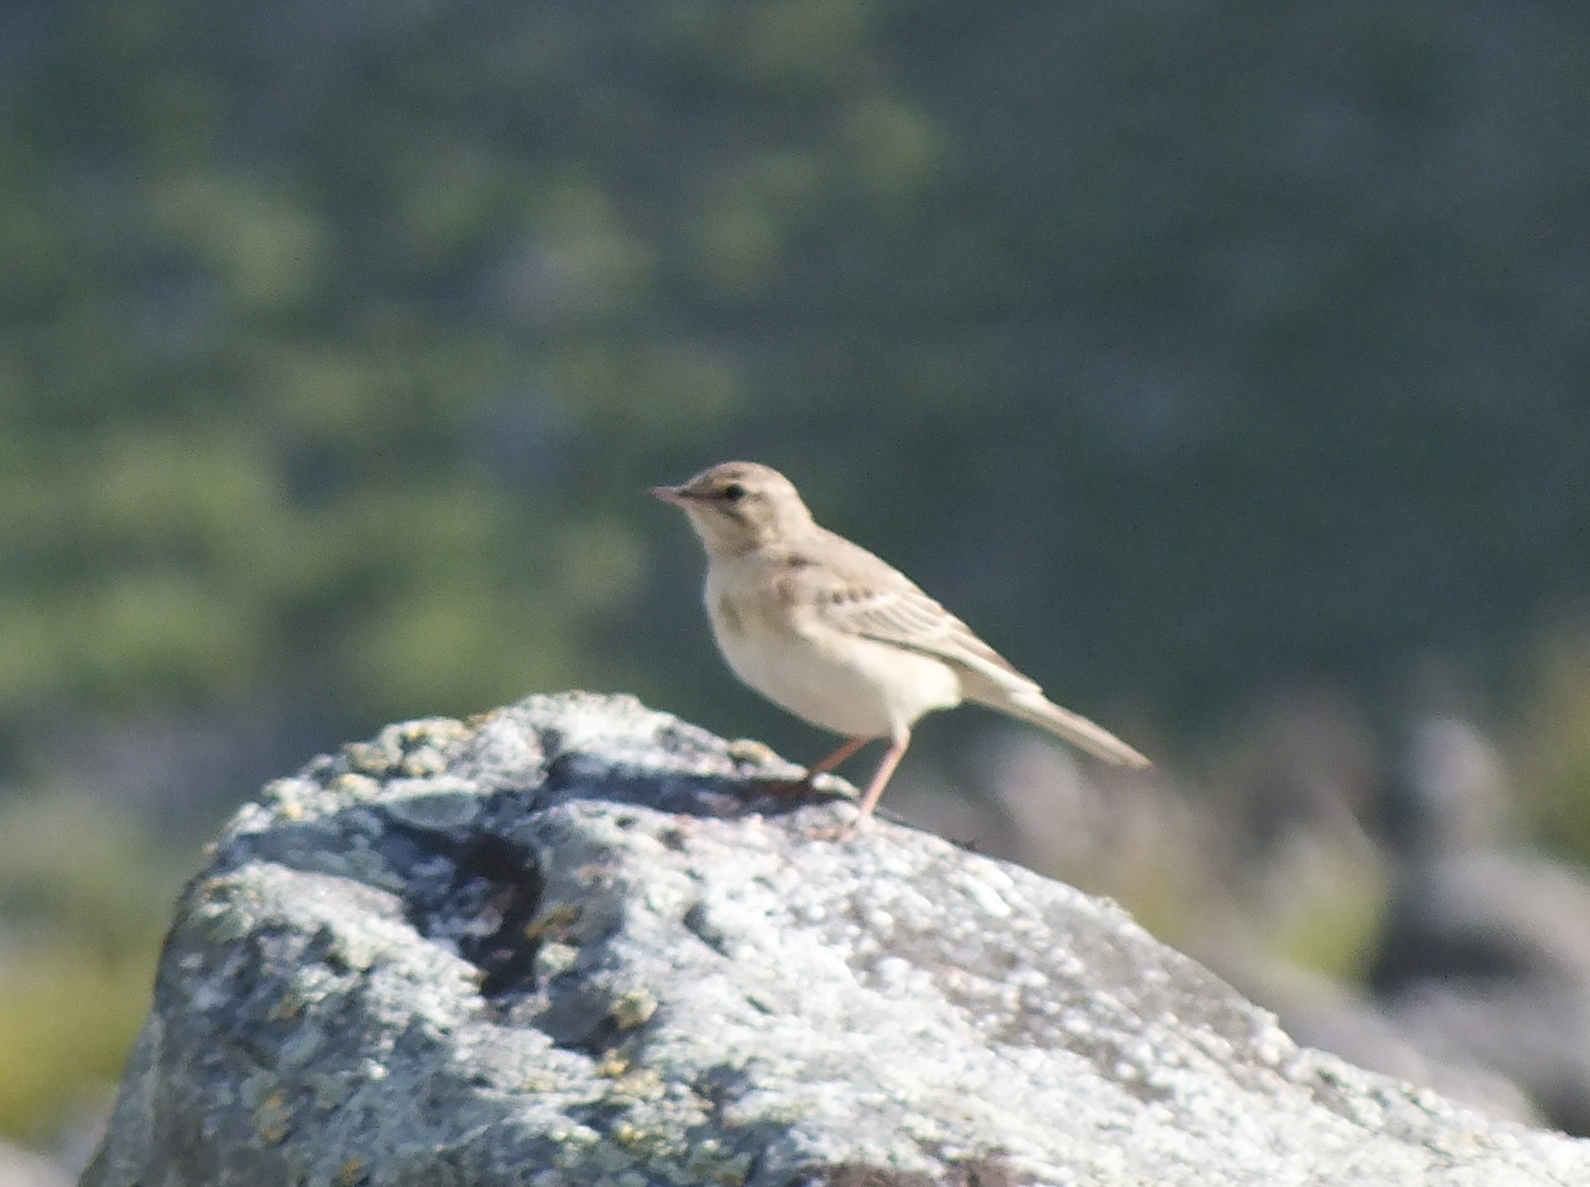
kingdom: Animalia
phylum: Chordata
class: Aves
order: Passeriformes
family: Motacillidae
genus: Anthus
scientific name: Anthus campestris
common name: Tawny pipit
